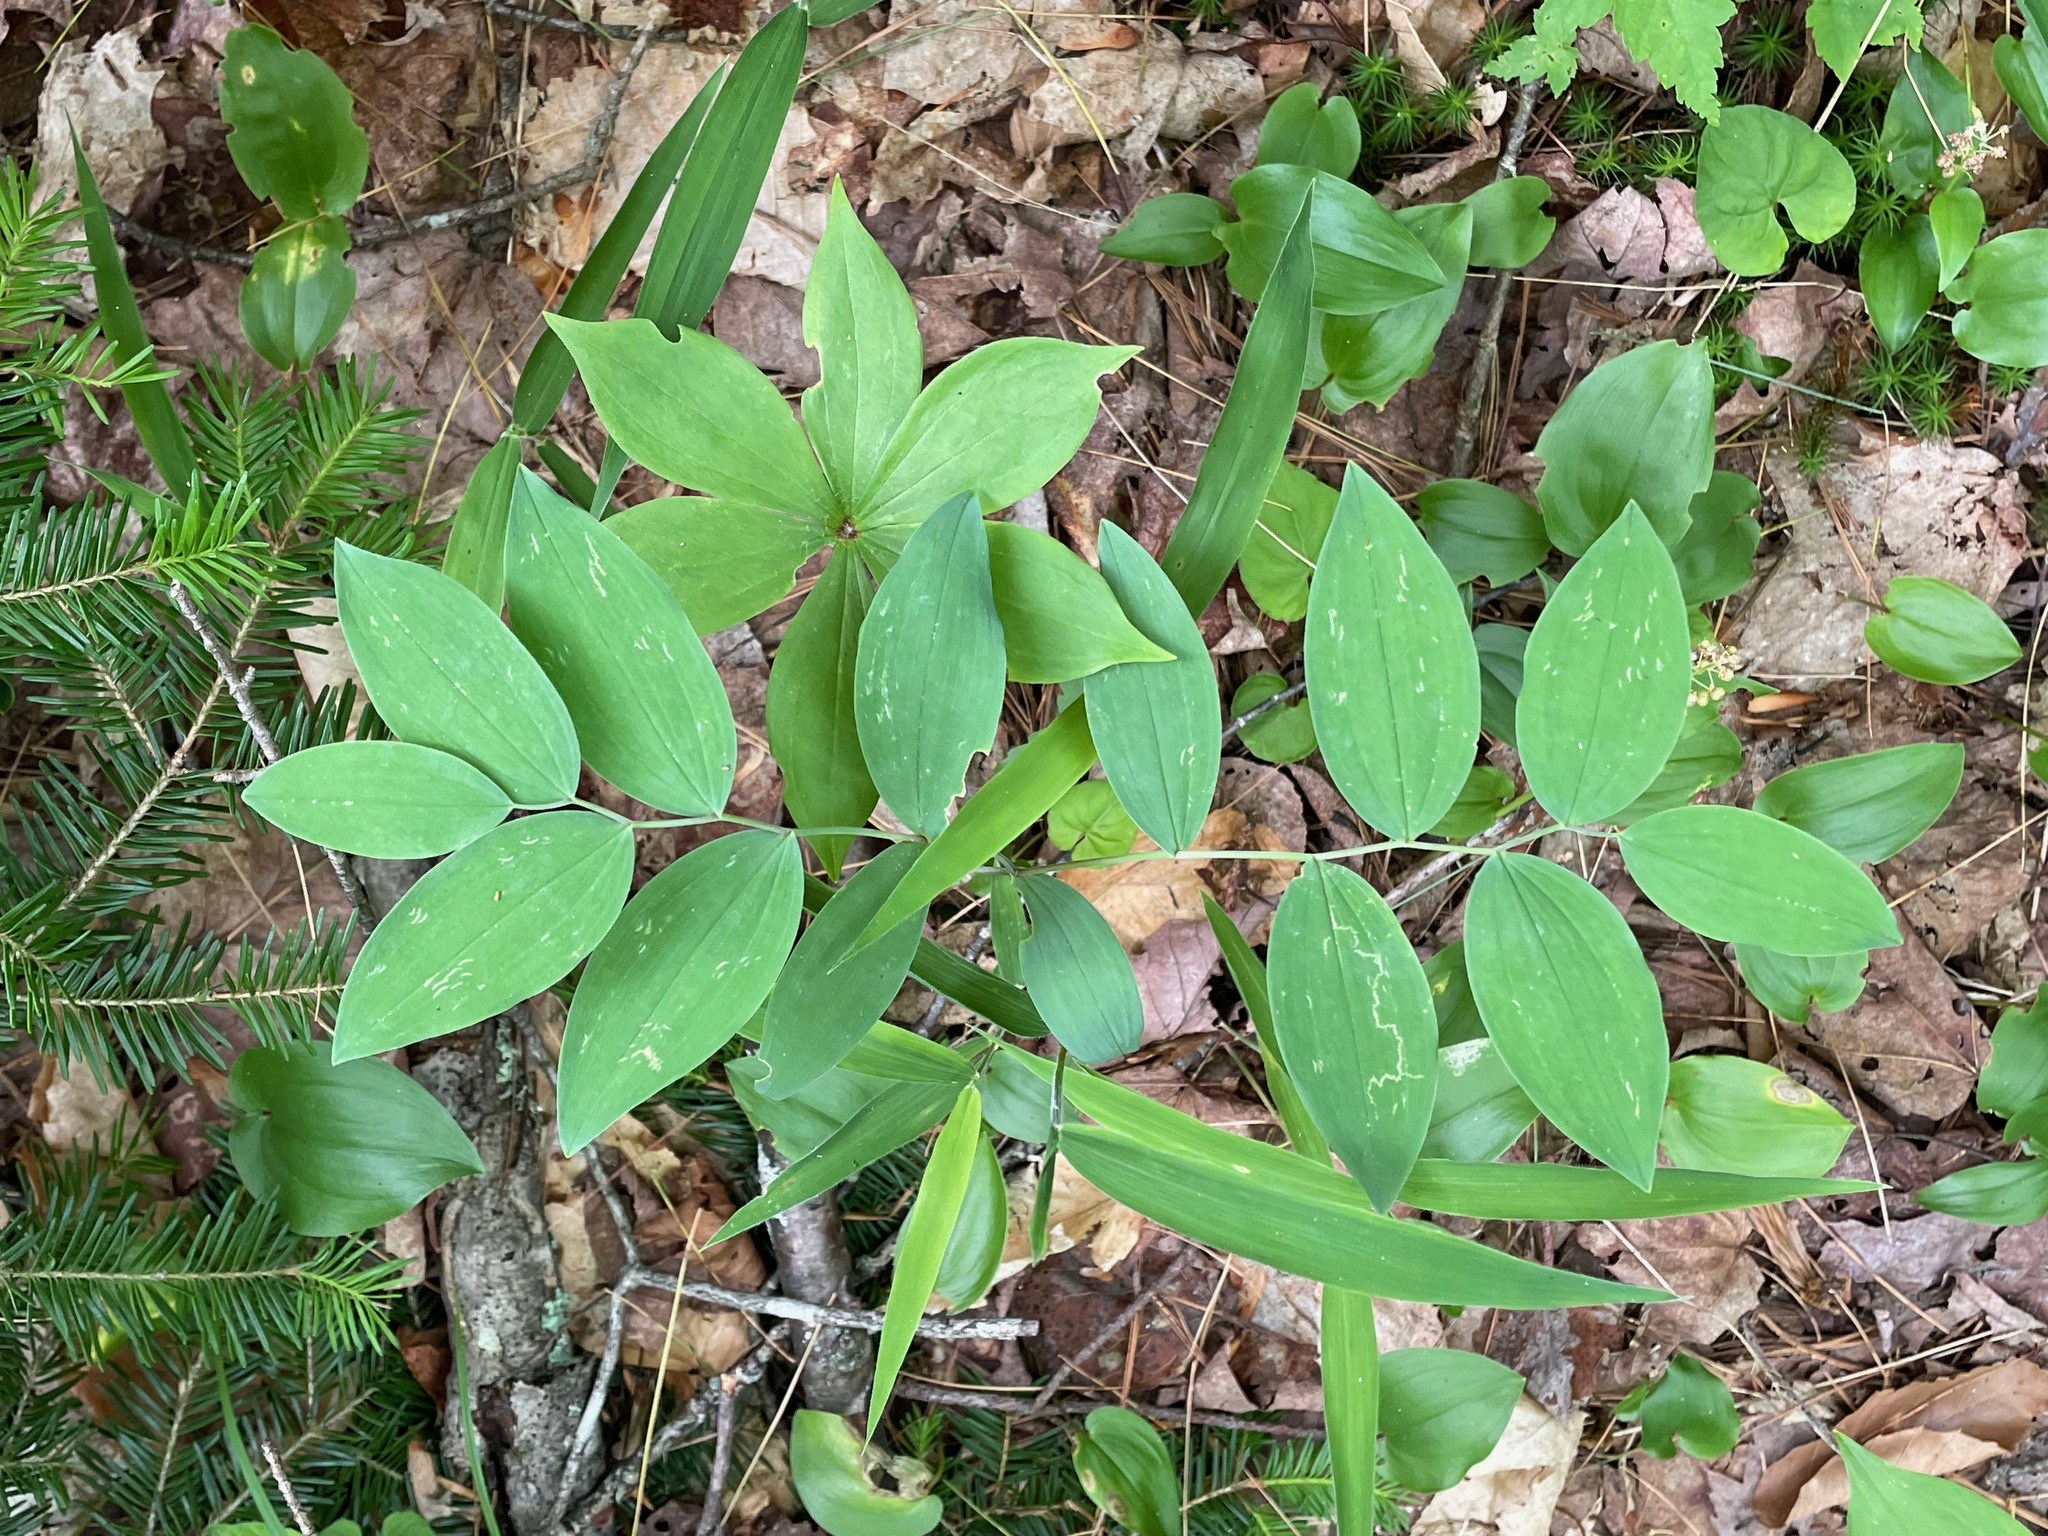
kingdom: Plantae
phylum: Tracheophyta
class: Liliopsida
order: Liliales
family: Colchicaceae
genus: Uvularia
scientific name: Uvularia sessilifolia
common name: Straw-lily
